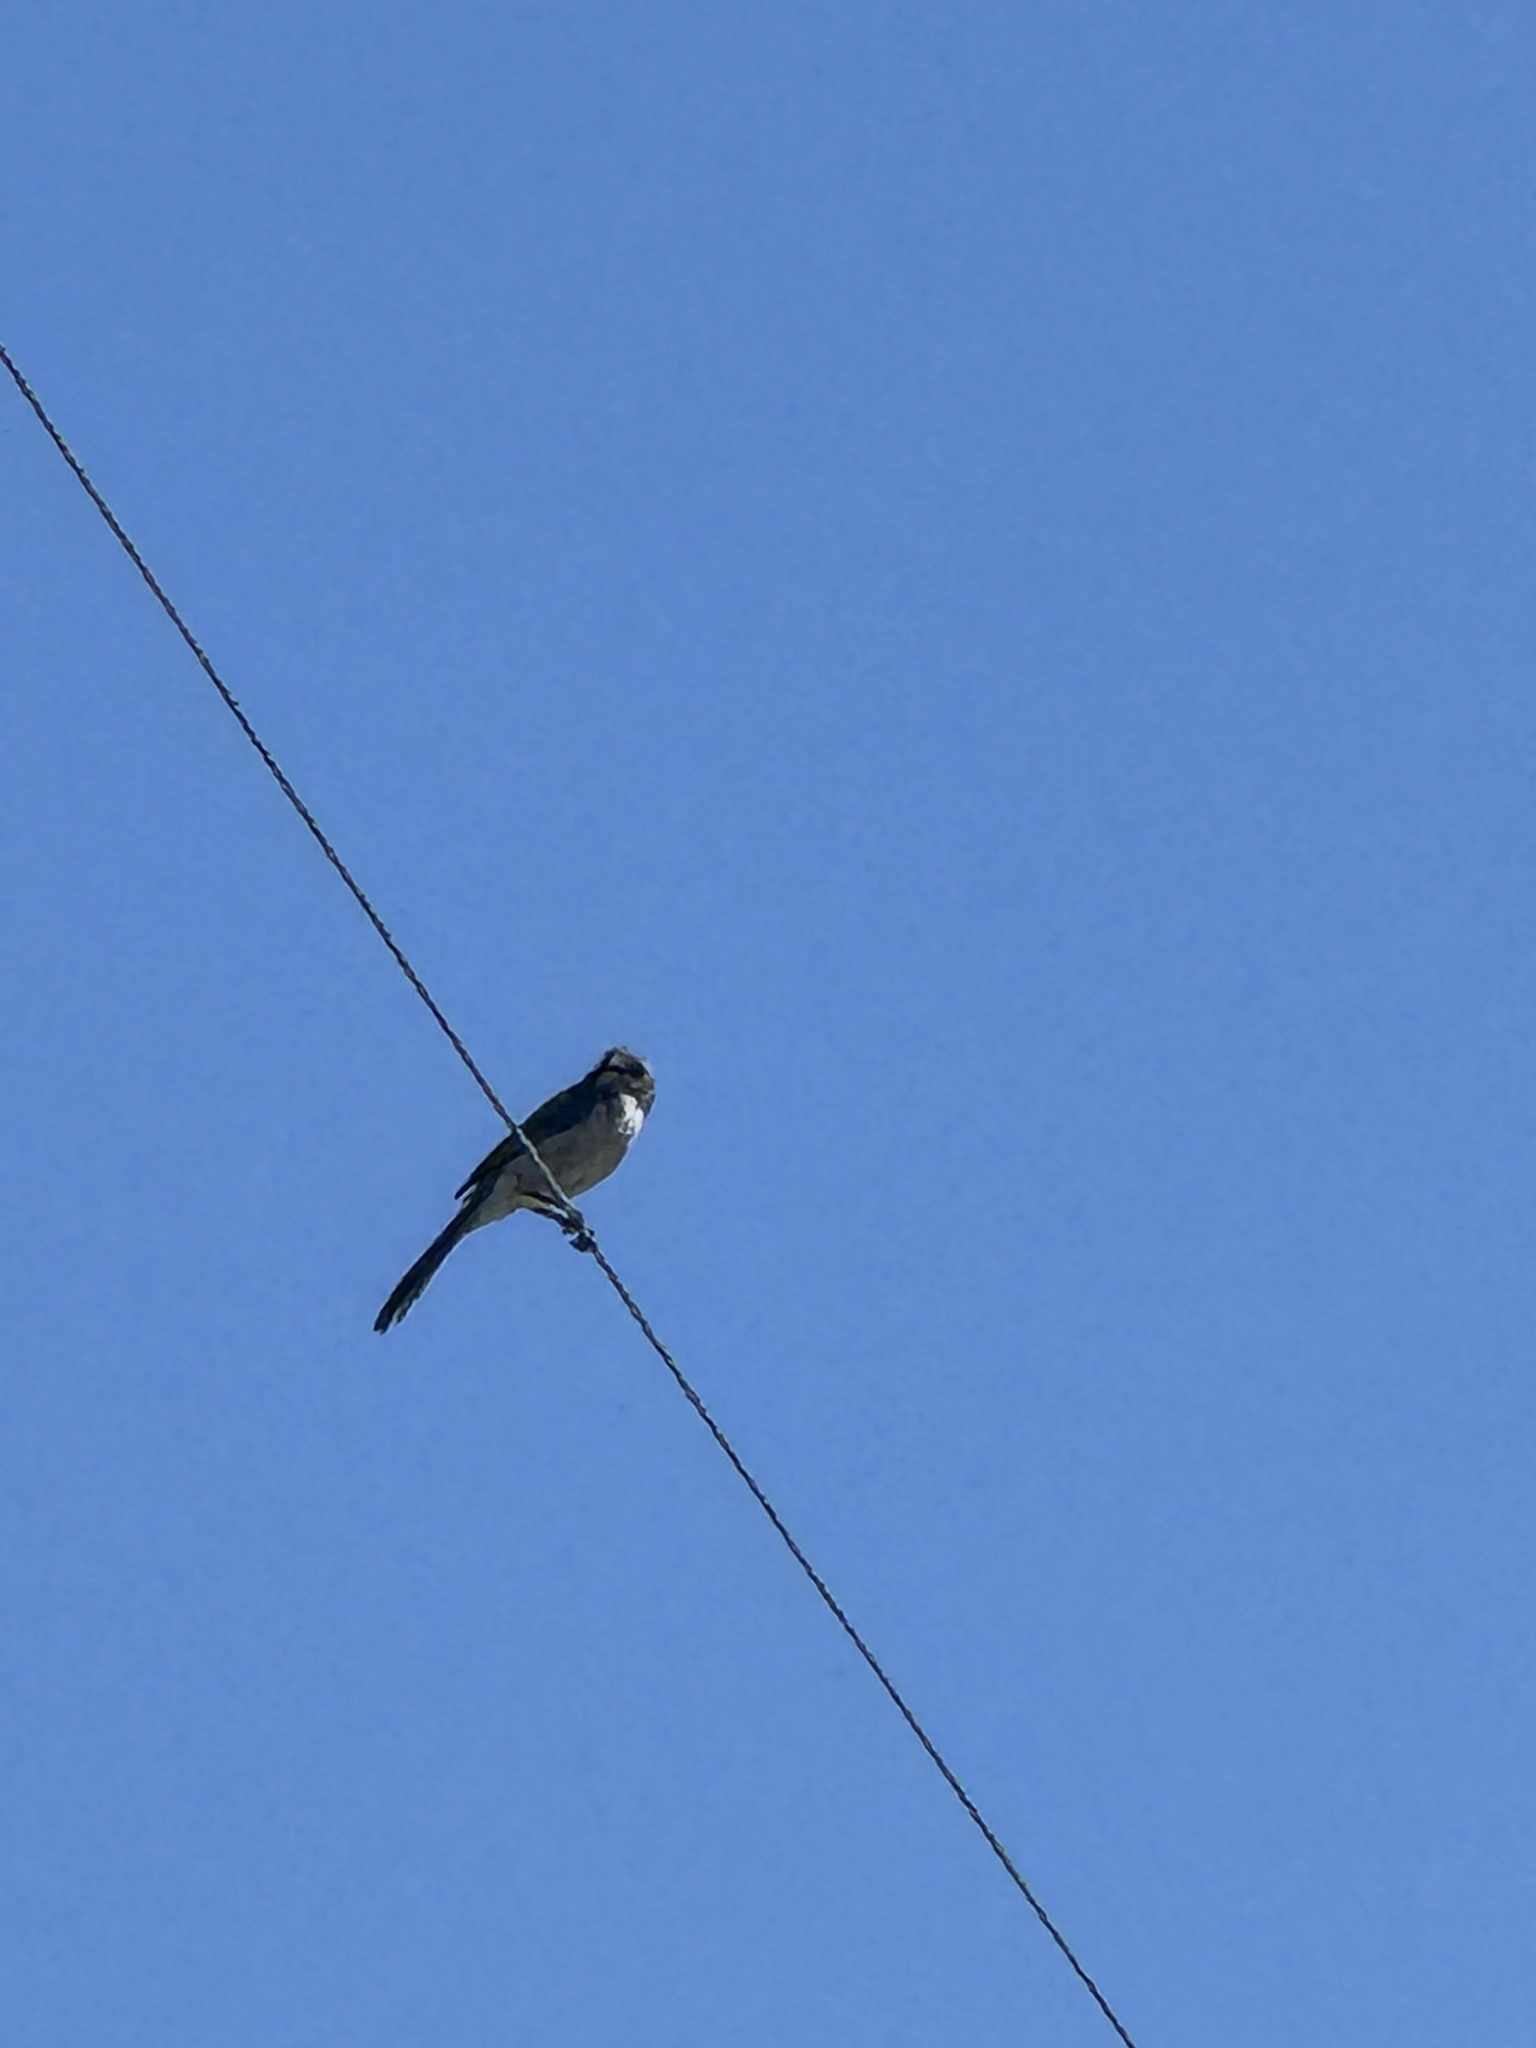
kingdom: Animalia
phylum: Chordata
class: Aves
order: Passeriformes
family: Corvidae
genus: Aphelocoma
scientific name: Aphelocoma californica
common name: California scrub-jay
